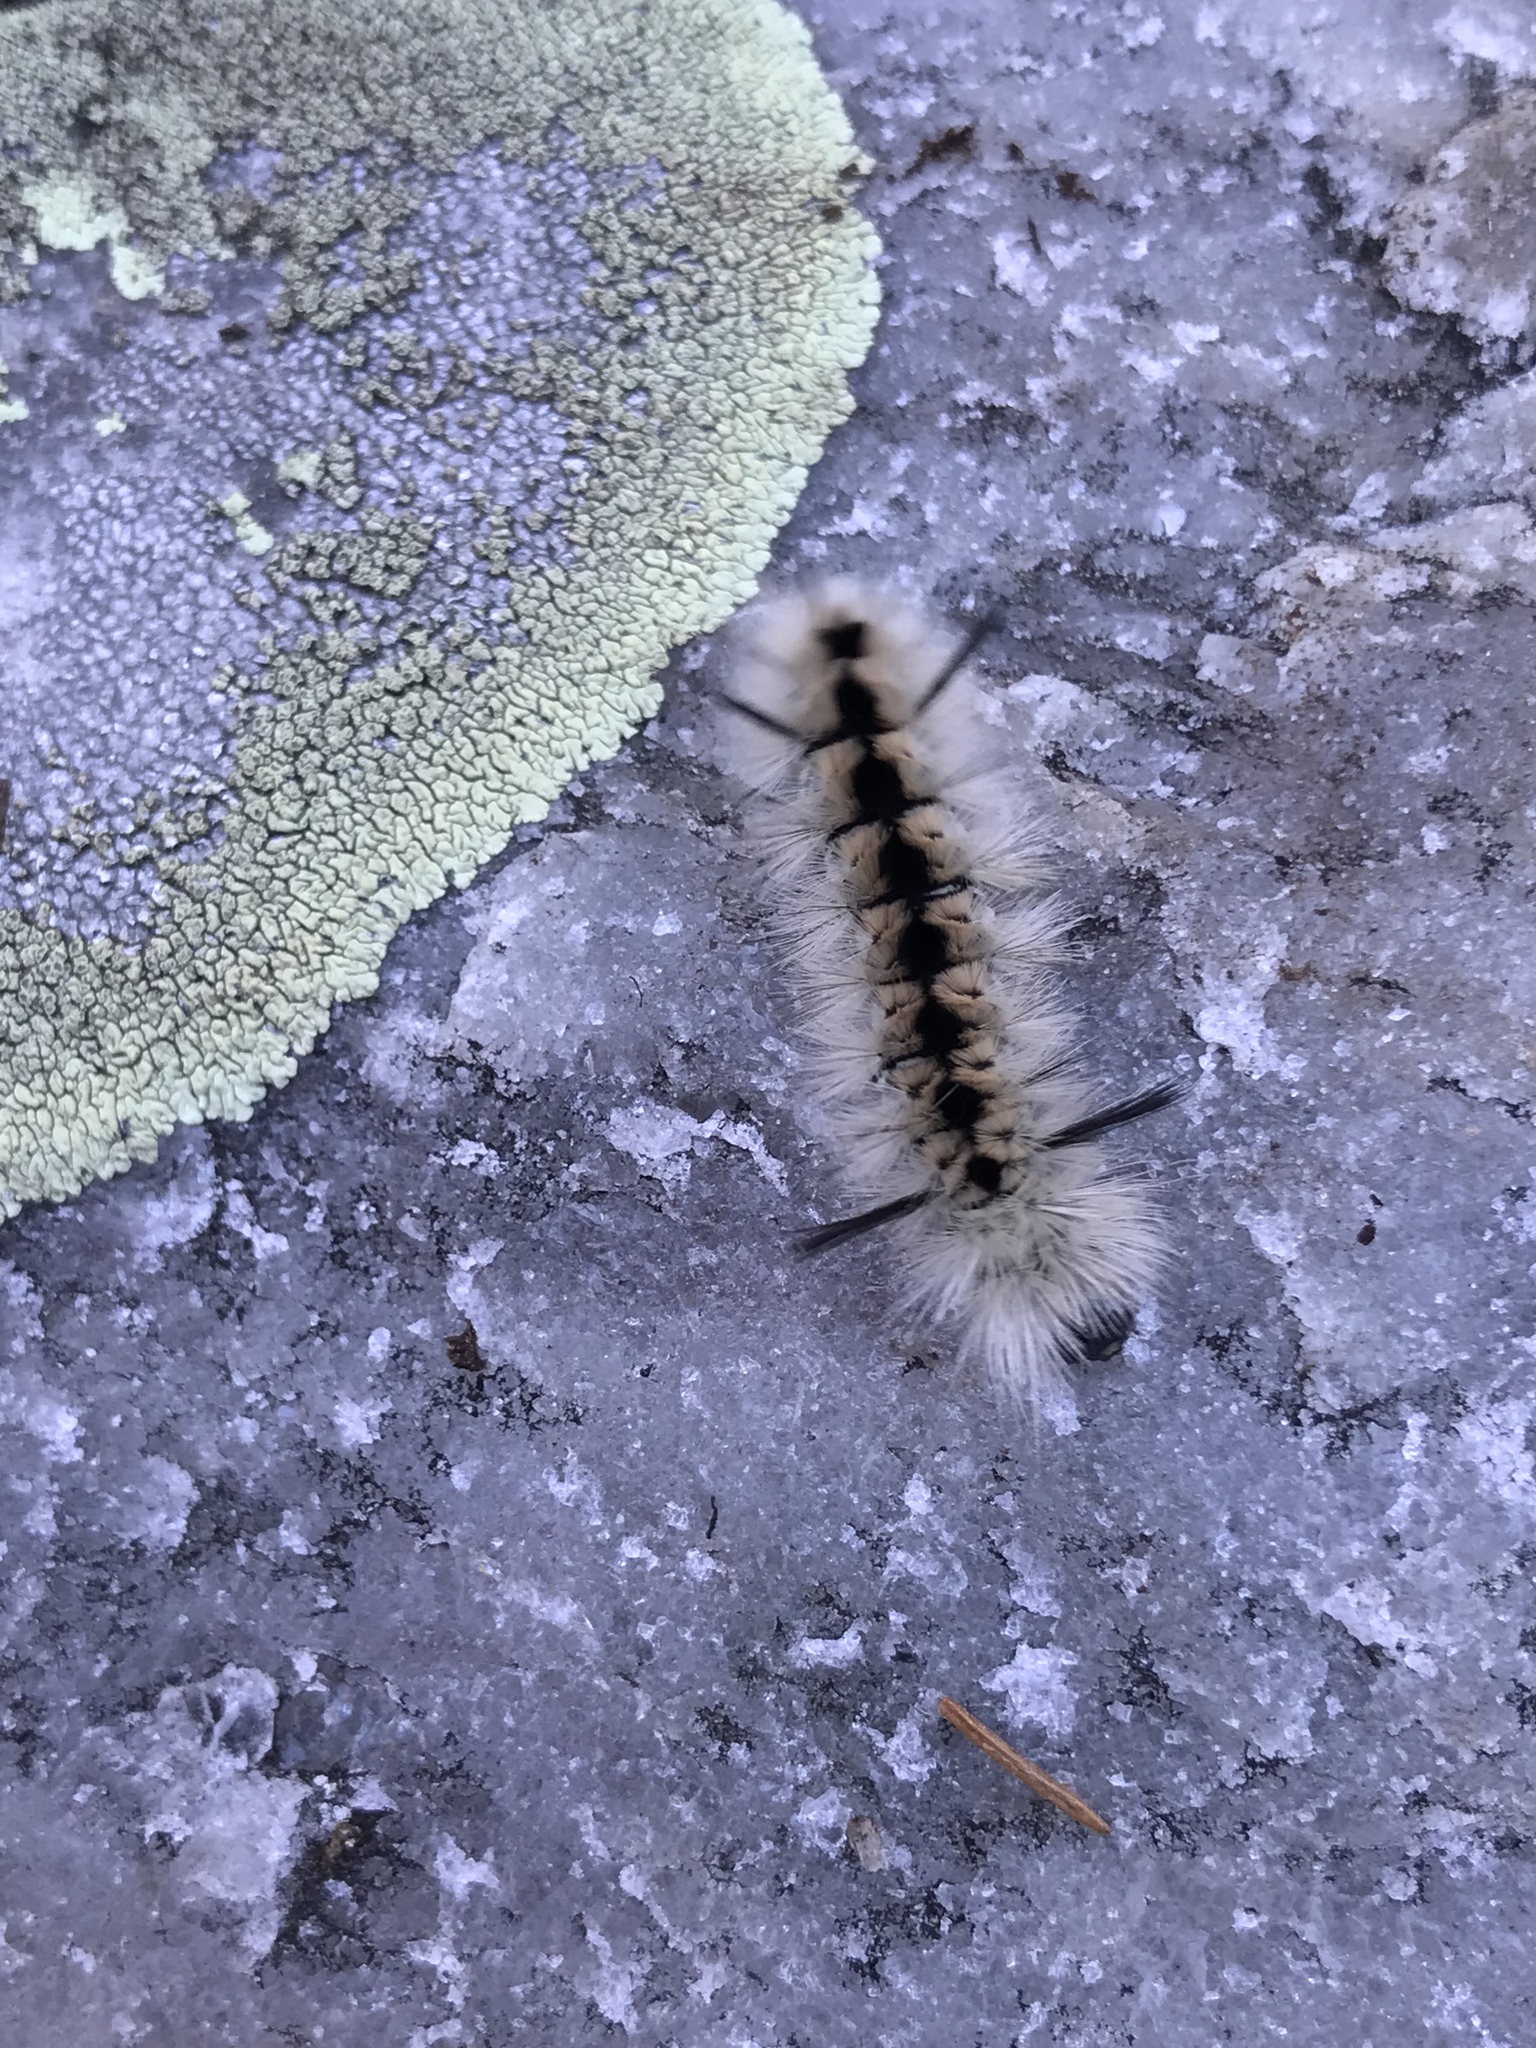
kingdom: Animalia
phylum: Arthropoda
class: Insecta
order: Lepidoptera
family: Erebidae
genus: Lophocampa
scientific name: Lophocampa caryae
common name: Hickory tussock moth
